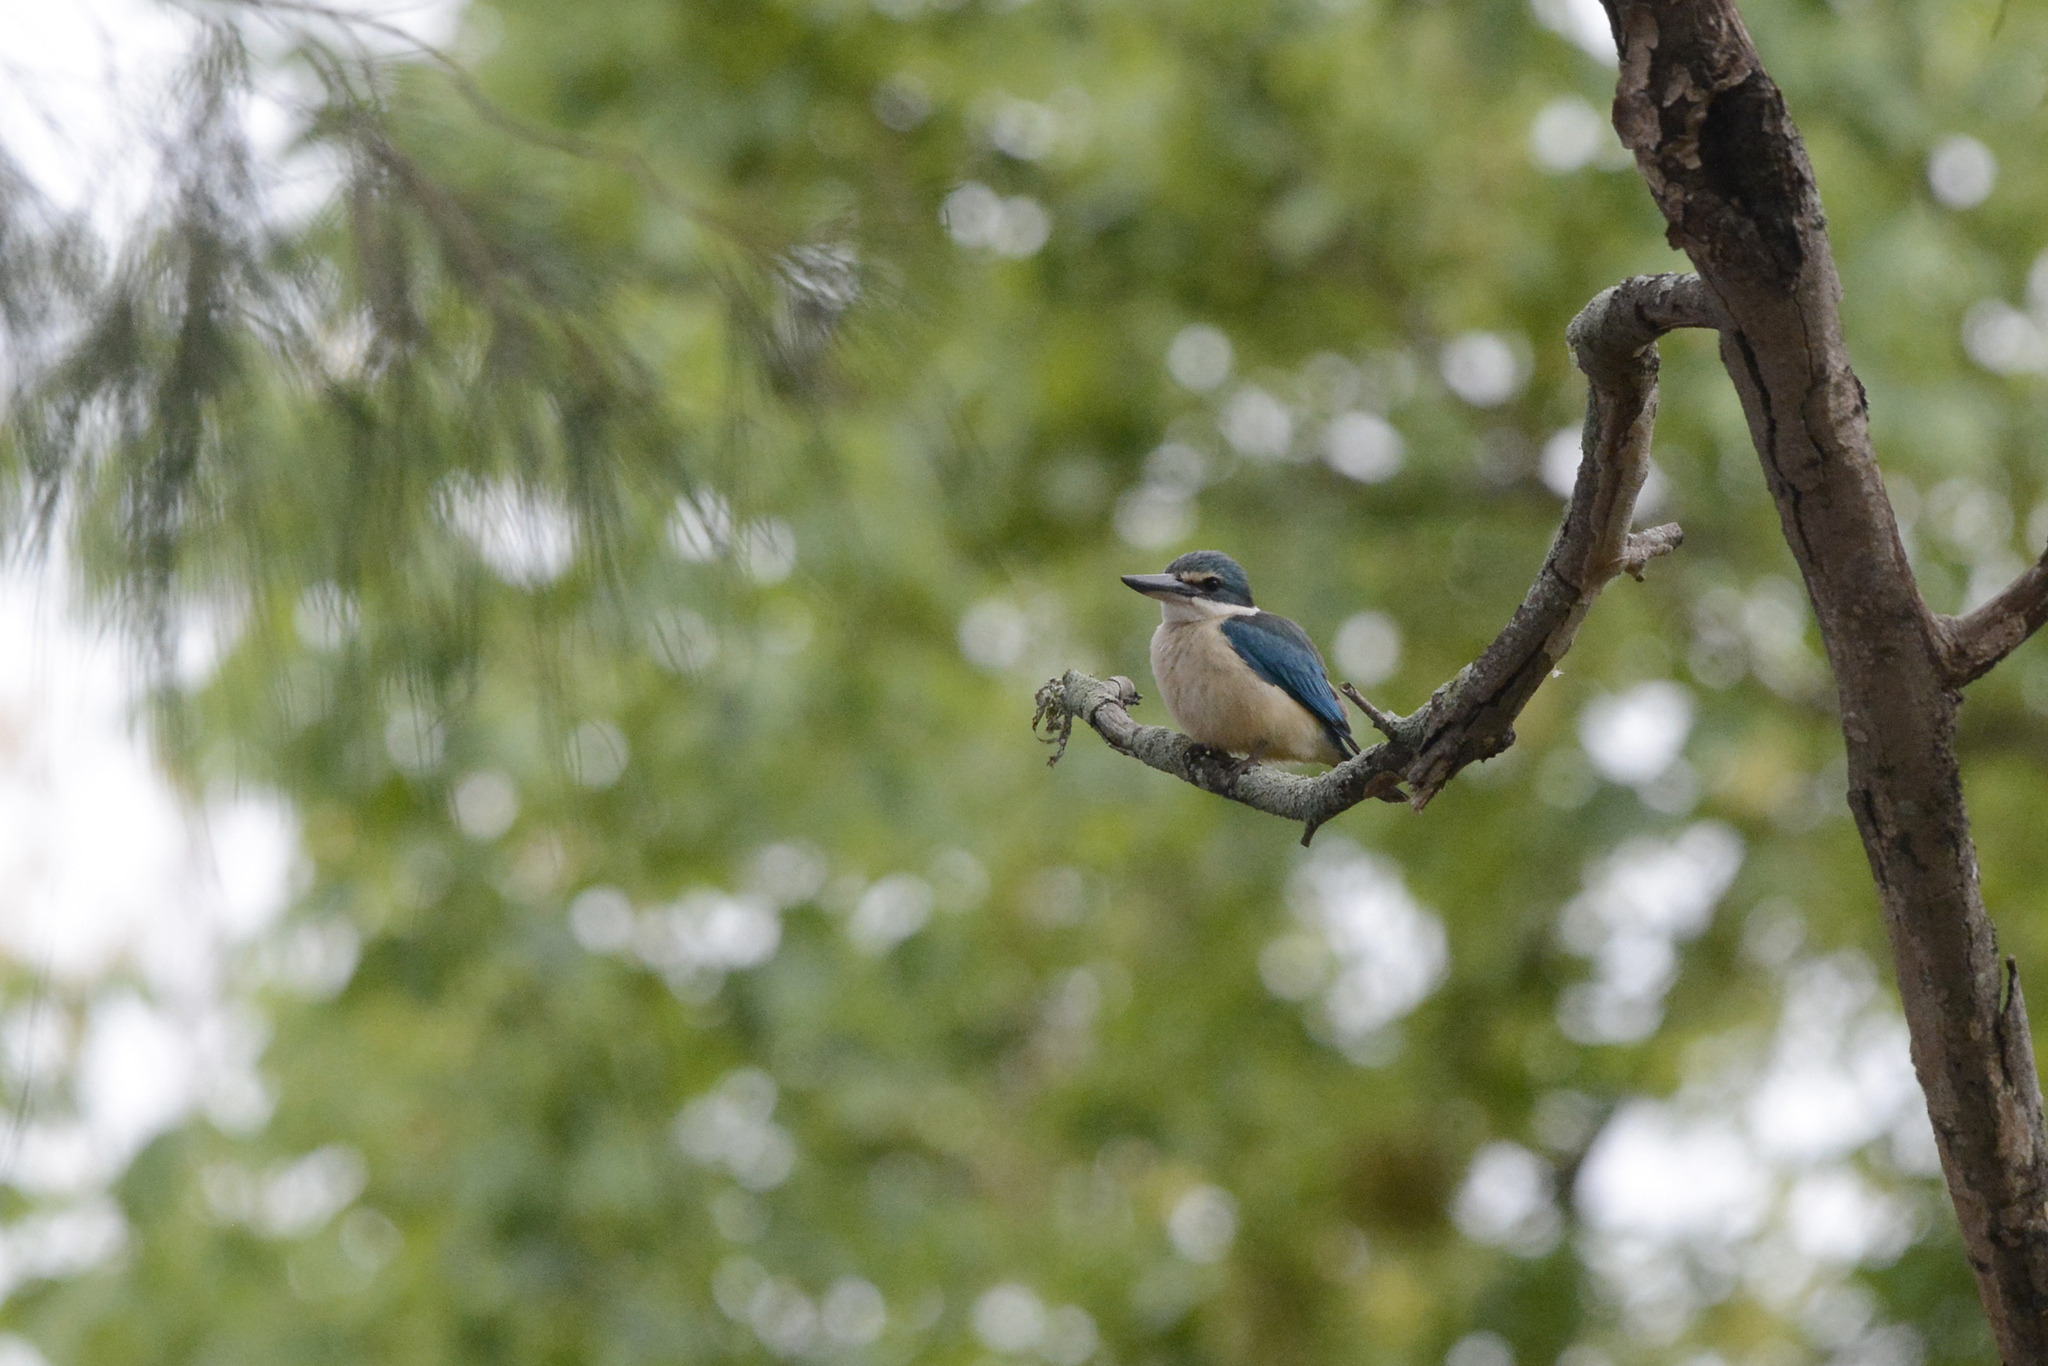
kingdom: Animalia
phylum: Chordata
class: Aves
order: Coraciiformes
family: Alcedinidae
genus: Todiramphus
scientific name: Todiramphus sanctus
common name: Sacred kingfisher
